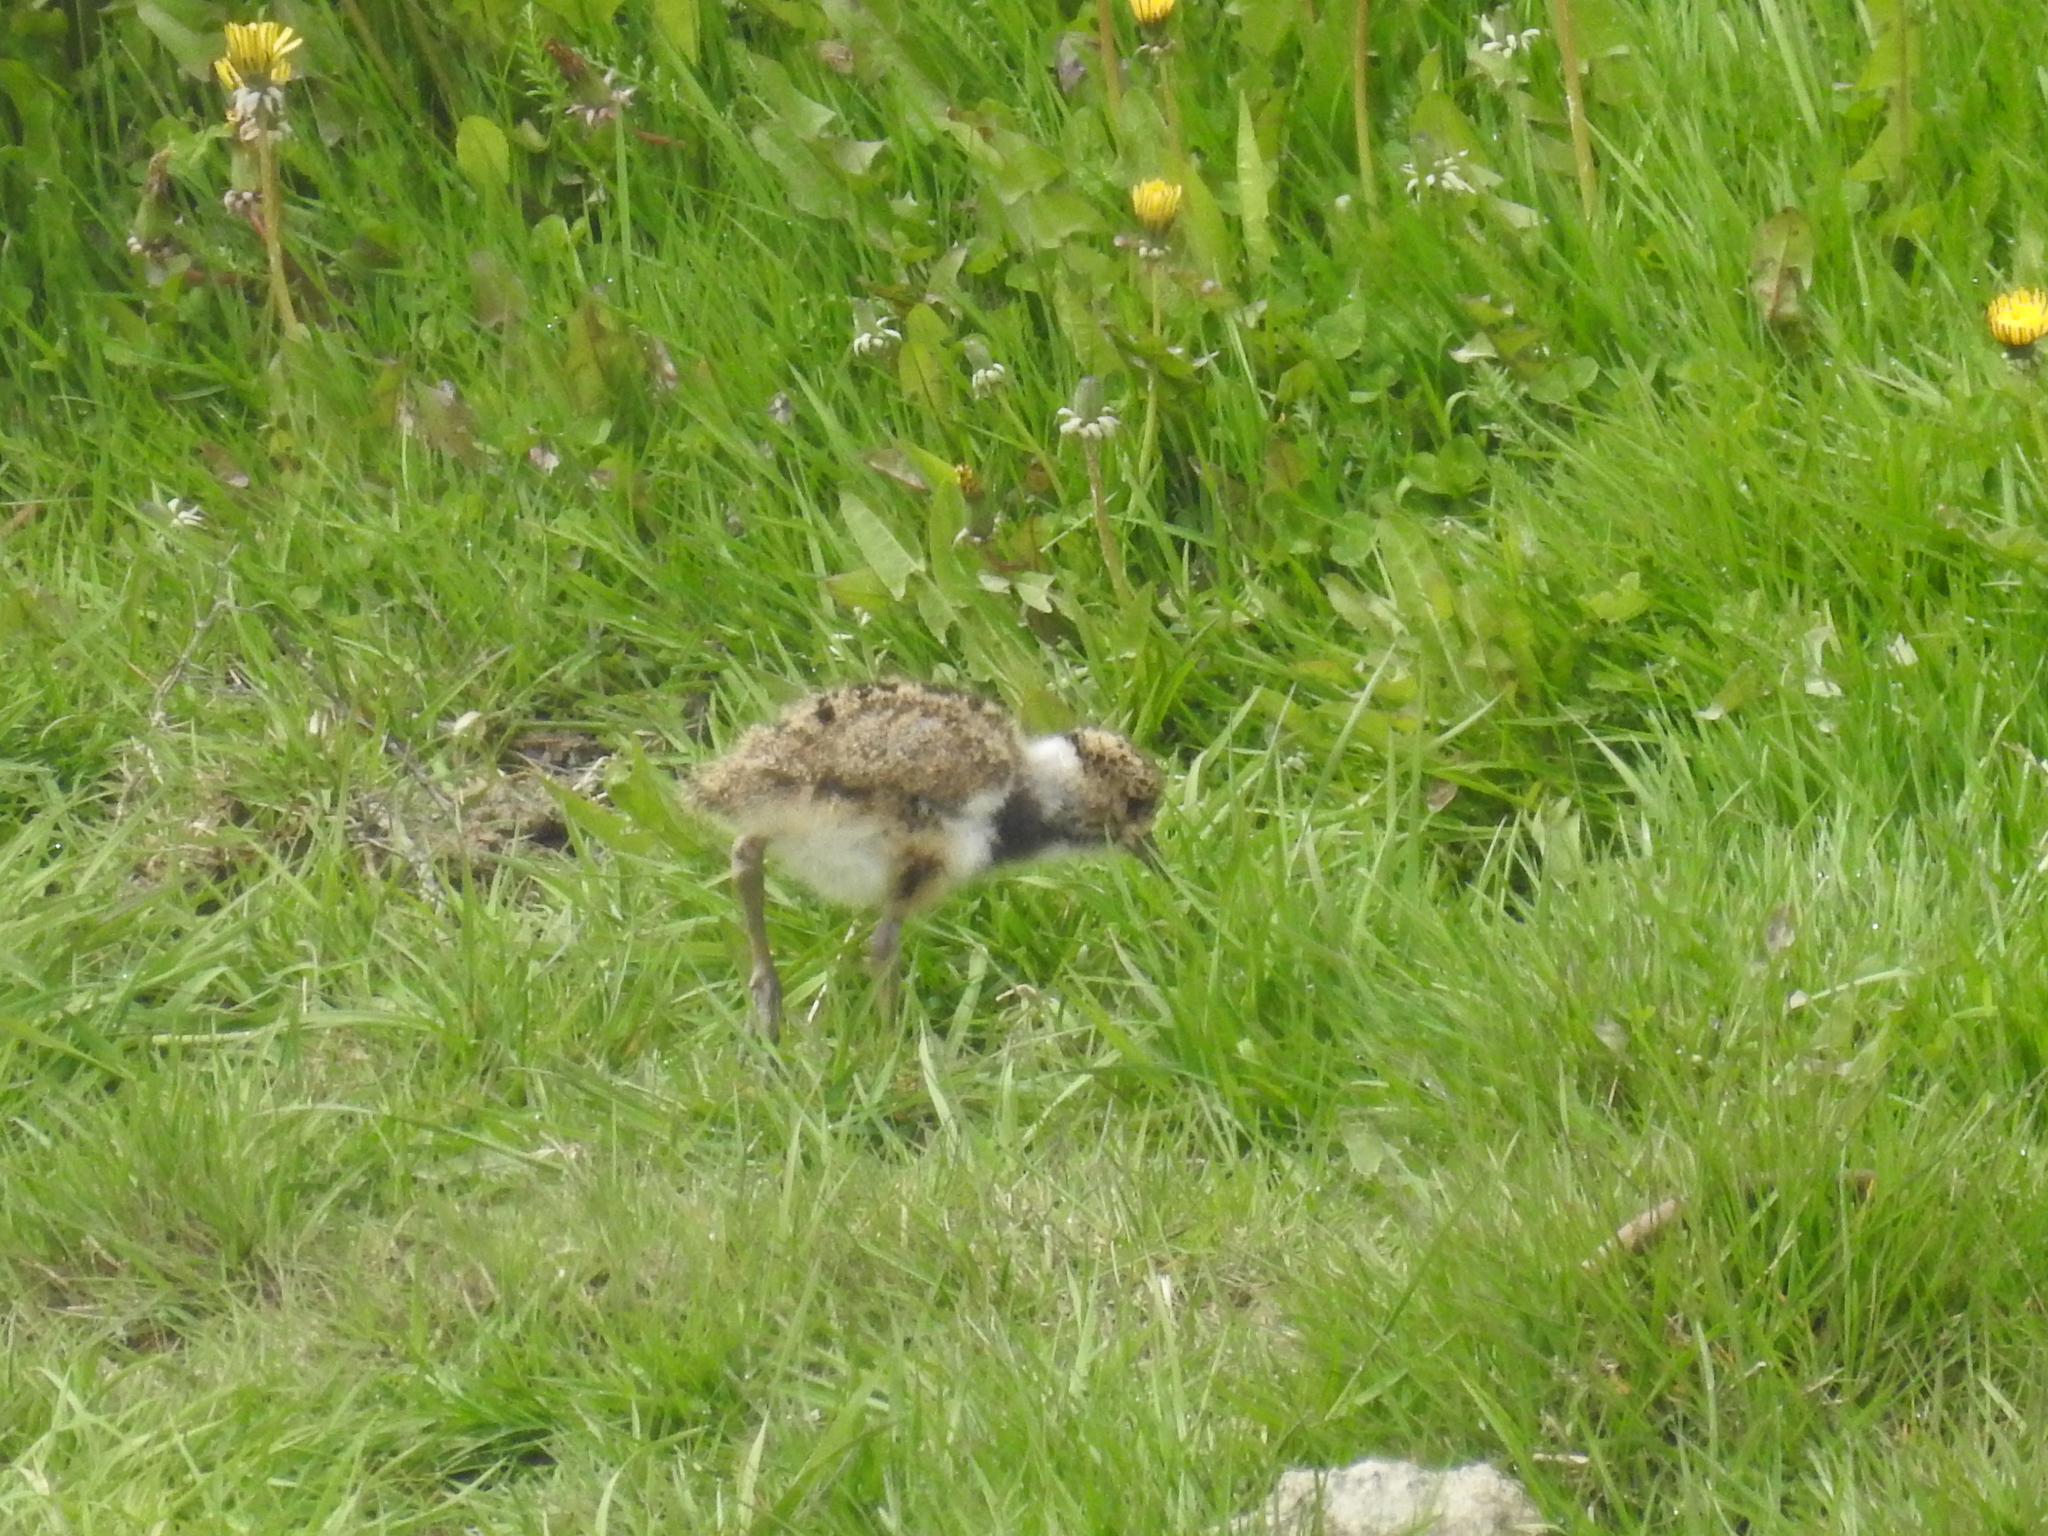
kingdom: Animalia
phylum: Chordata
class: Aves
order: Charadriiformes
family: Charadriidae
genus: Vanellus
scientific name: Vanellus chilensis
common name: Southern lapwing
